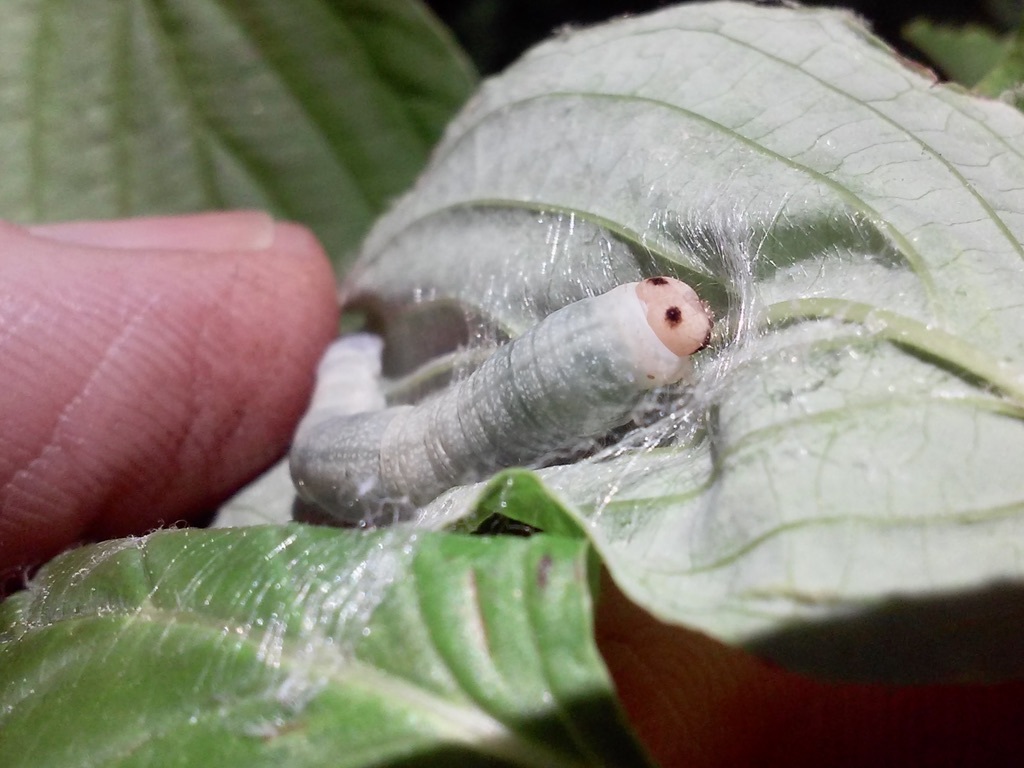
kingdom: Animalia
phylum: Arthropoda
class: Insecta
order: Lepidoptera
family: Drepanidae
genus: Euthyatira
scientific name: Euthyatira pudens
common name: Dogwood thyatirid moth
